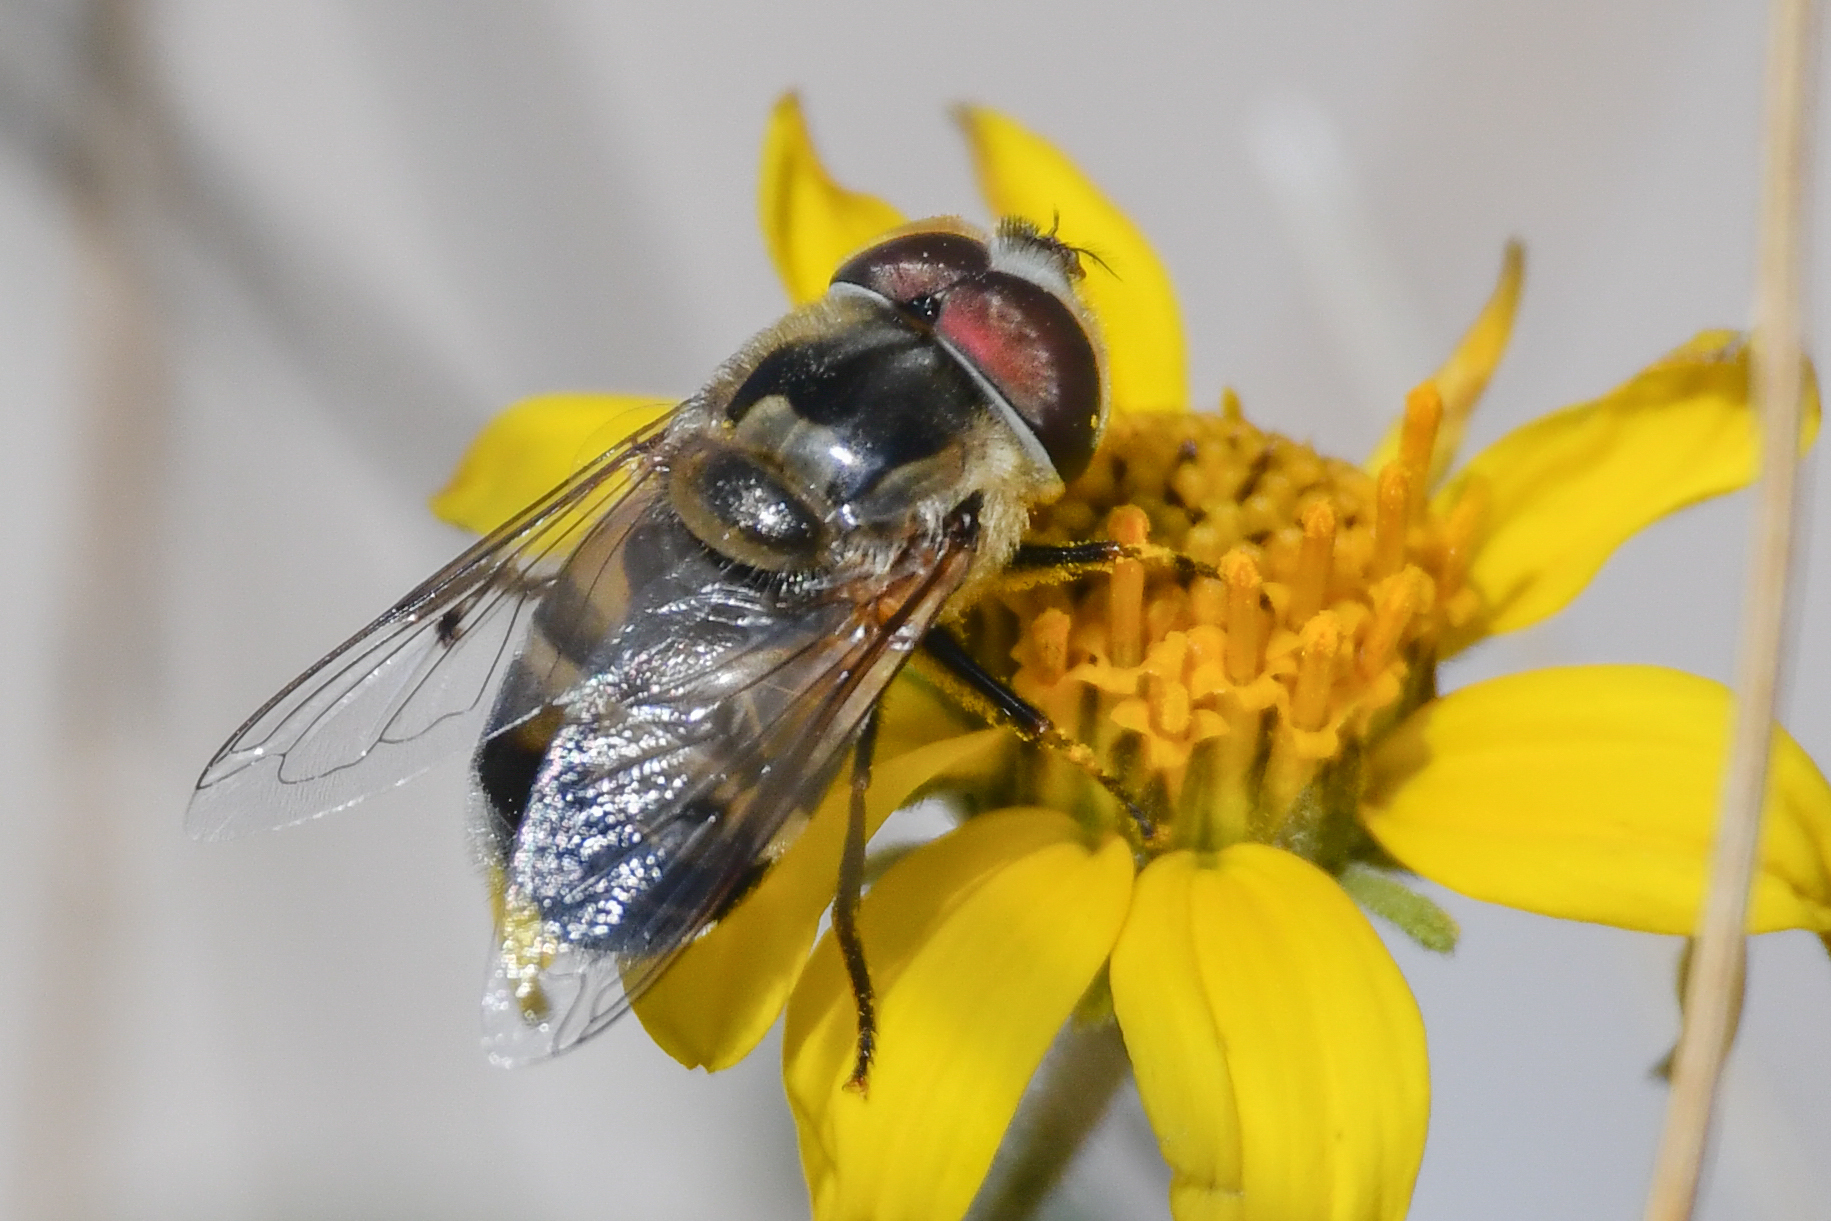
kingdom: Animalia
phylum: Arthropoda
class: Insecta
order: Diptera
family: Syrphidae
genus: Copestylum
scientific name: Copestylum apiciferum
